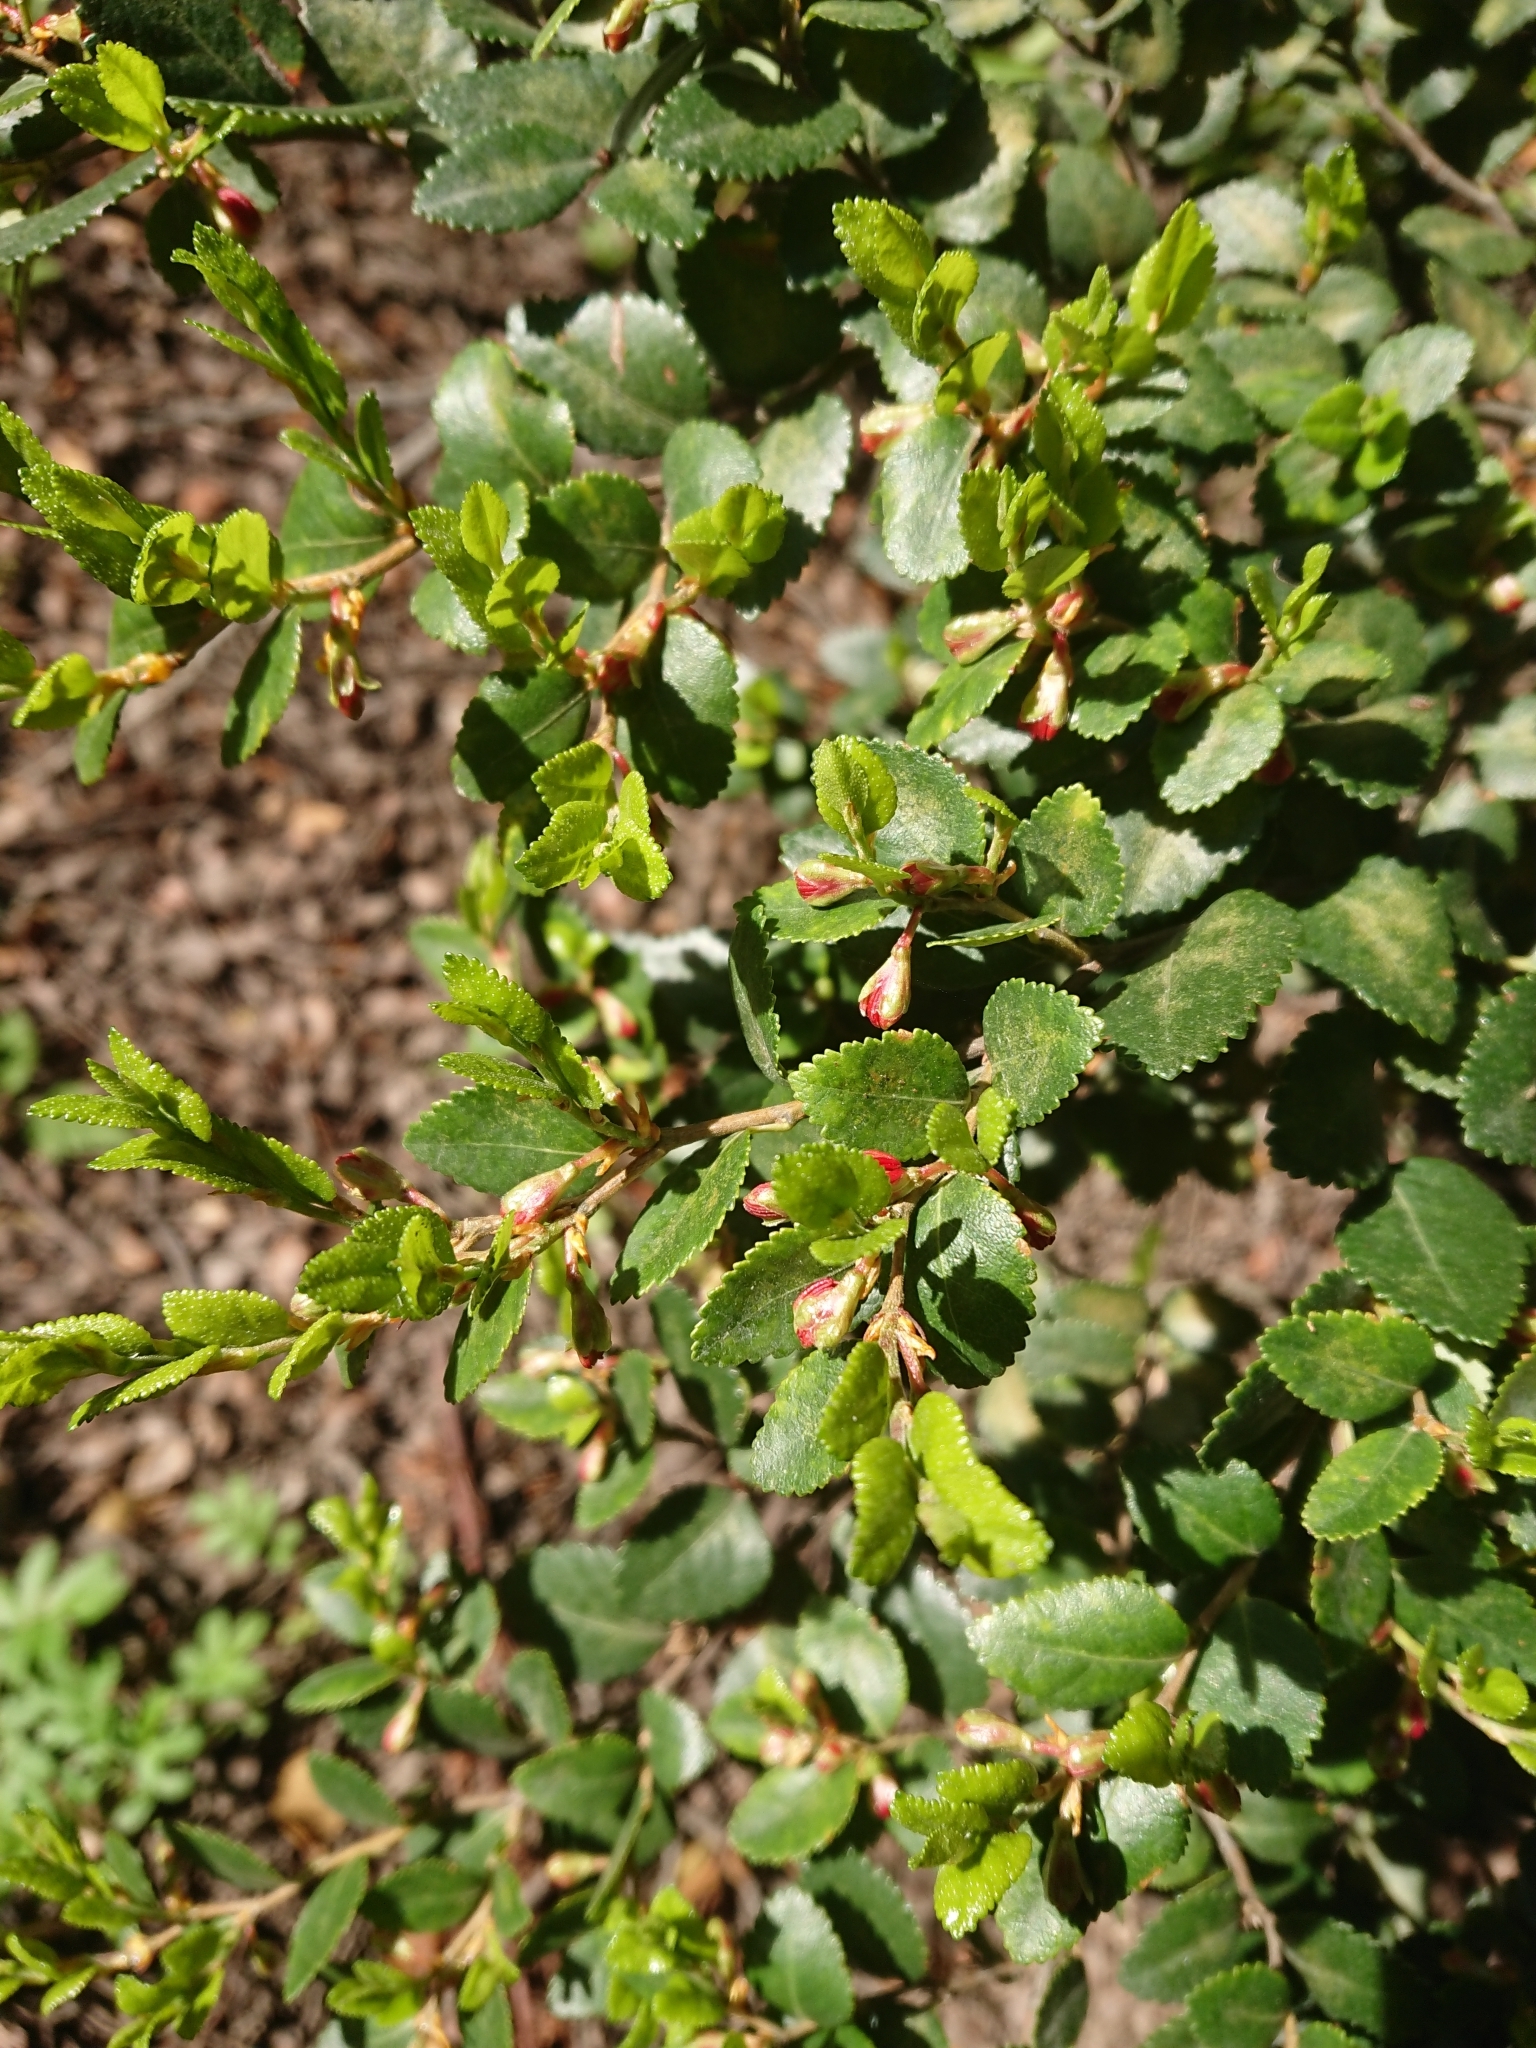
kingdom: Plantae
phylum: Tracheophyta
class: Magnoliopsida
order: Fagales
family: Nothofagaceae
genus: Nothofagus
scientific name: Nothofagus betuloides
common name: Magellan's beech
